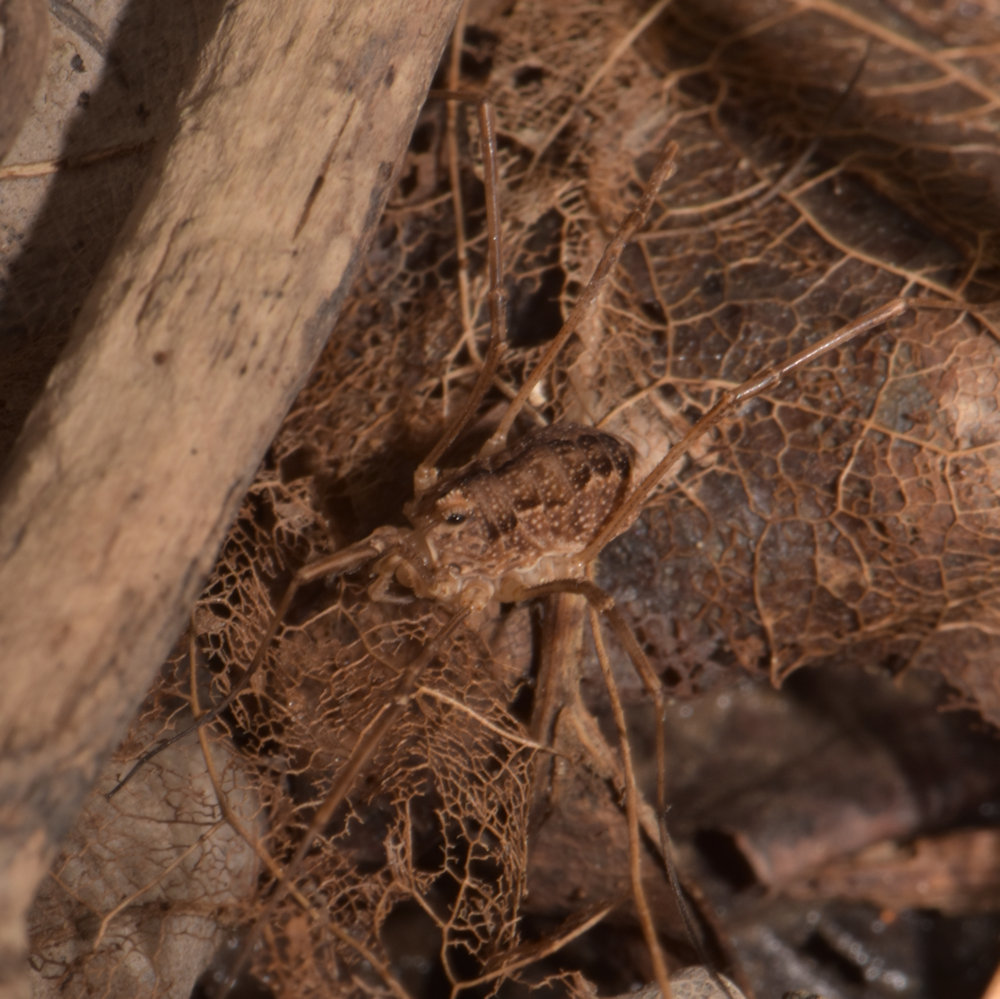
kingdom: Animalia
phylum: Arthropoda
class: Arachnida
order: Opiliones
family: Phalangiidae
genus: Rilaena
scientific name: Rilaena triangularis
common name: Spring harvestman
